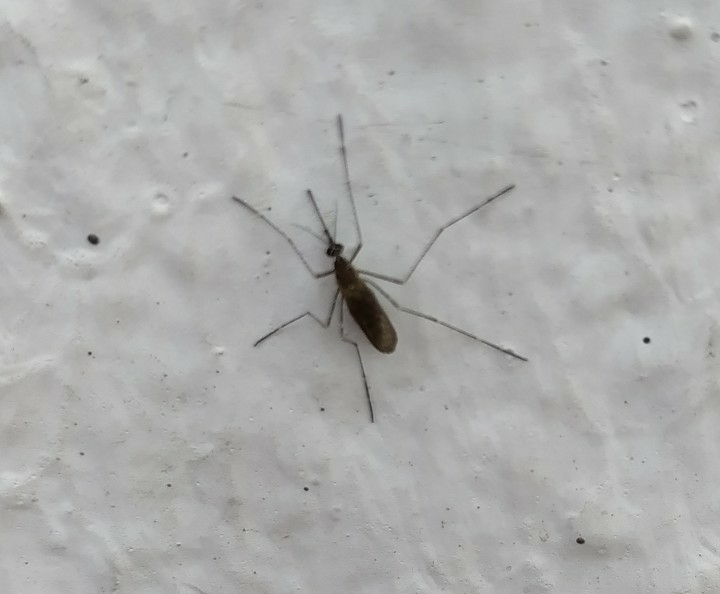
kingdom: Animalia
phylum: Arthropoda
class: Insecta
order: Diptera
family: Culicidae
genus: Culiseta
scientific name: Culiseta longiareolata
